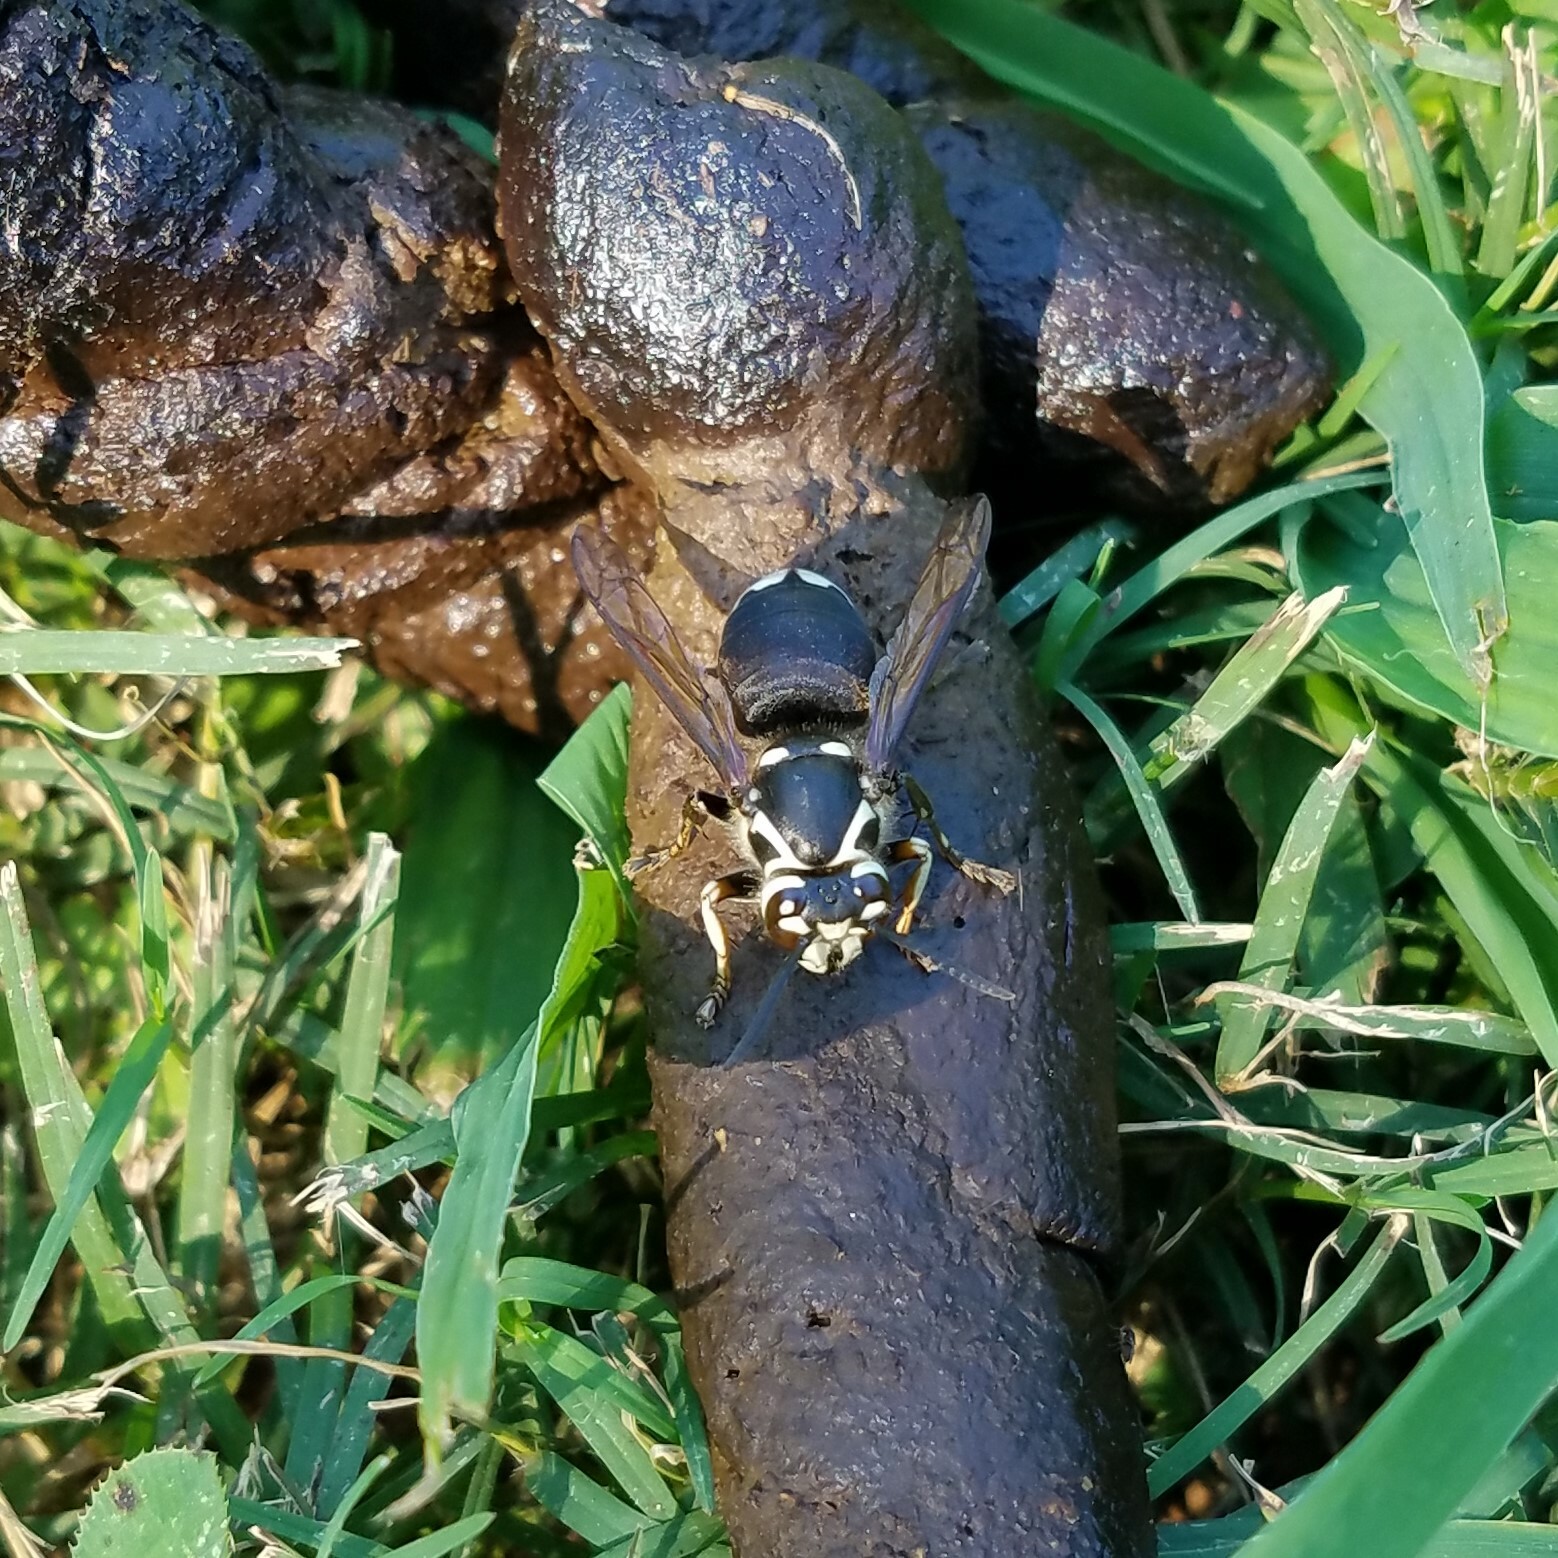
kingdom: Animalia
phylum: Arthropoda
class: Insecta
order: Hymenoptera
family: Vespidae
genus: Dolichovespula
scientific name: Dolichovespula maculata
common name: Bald-faced hornet
